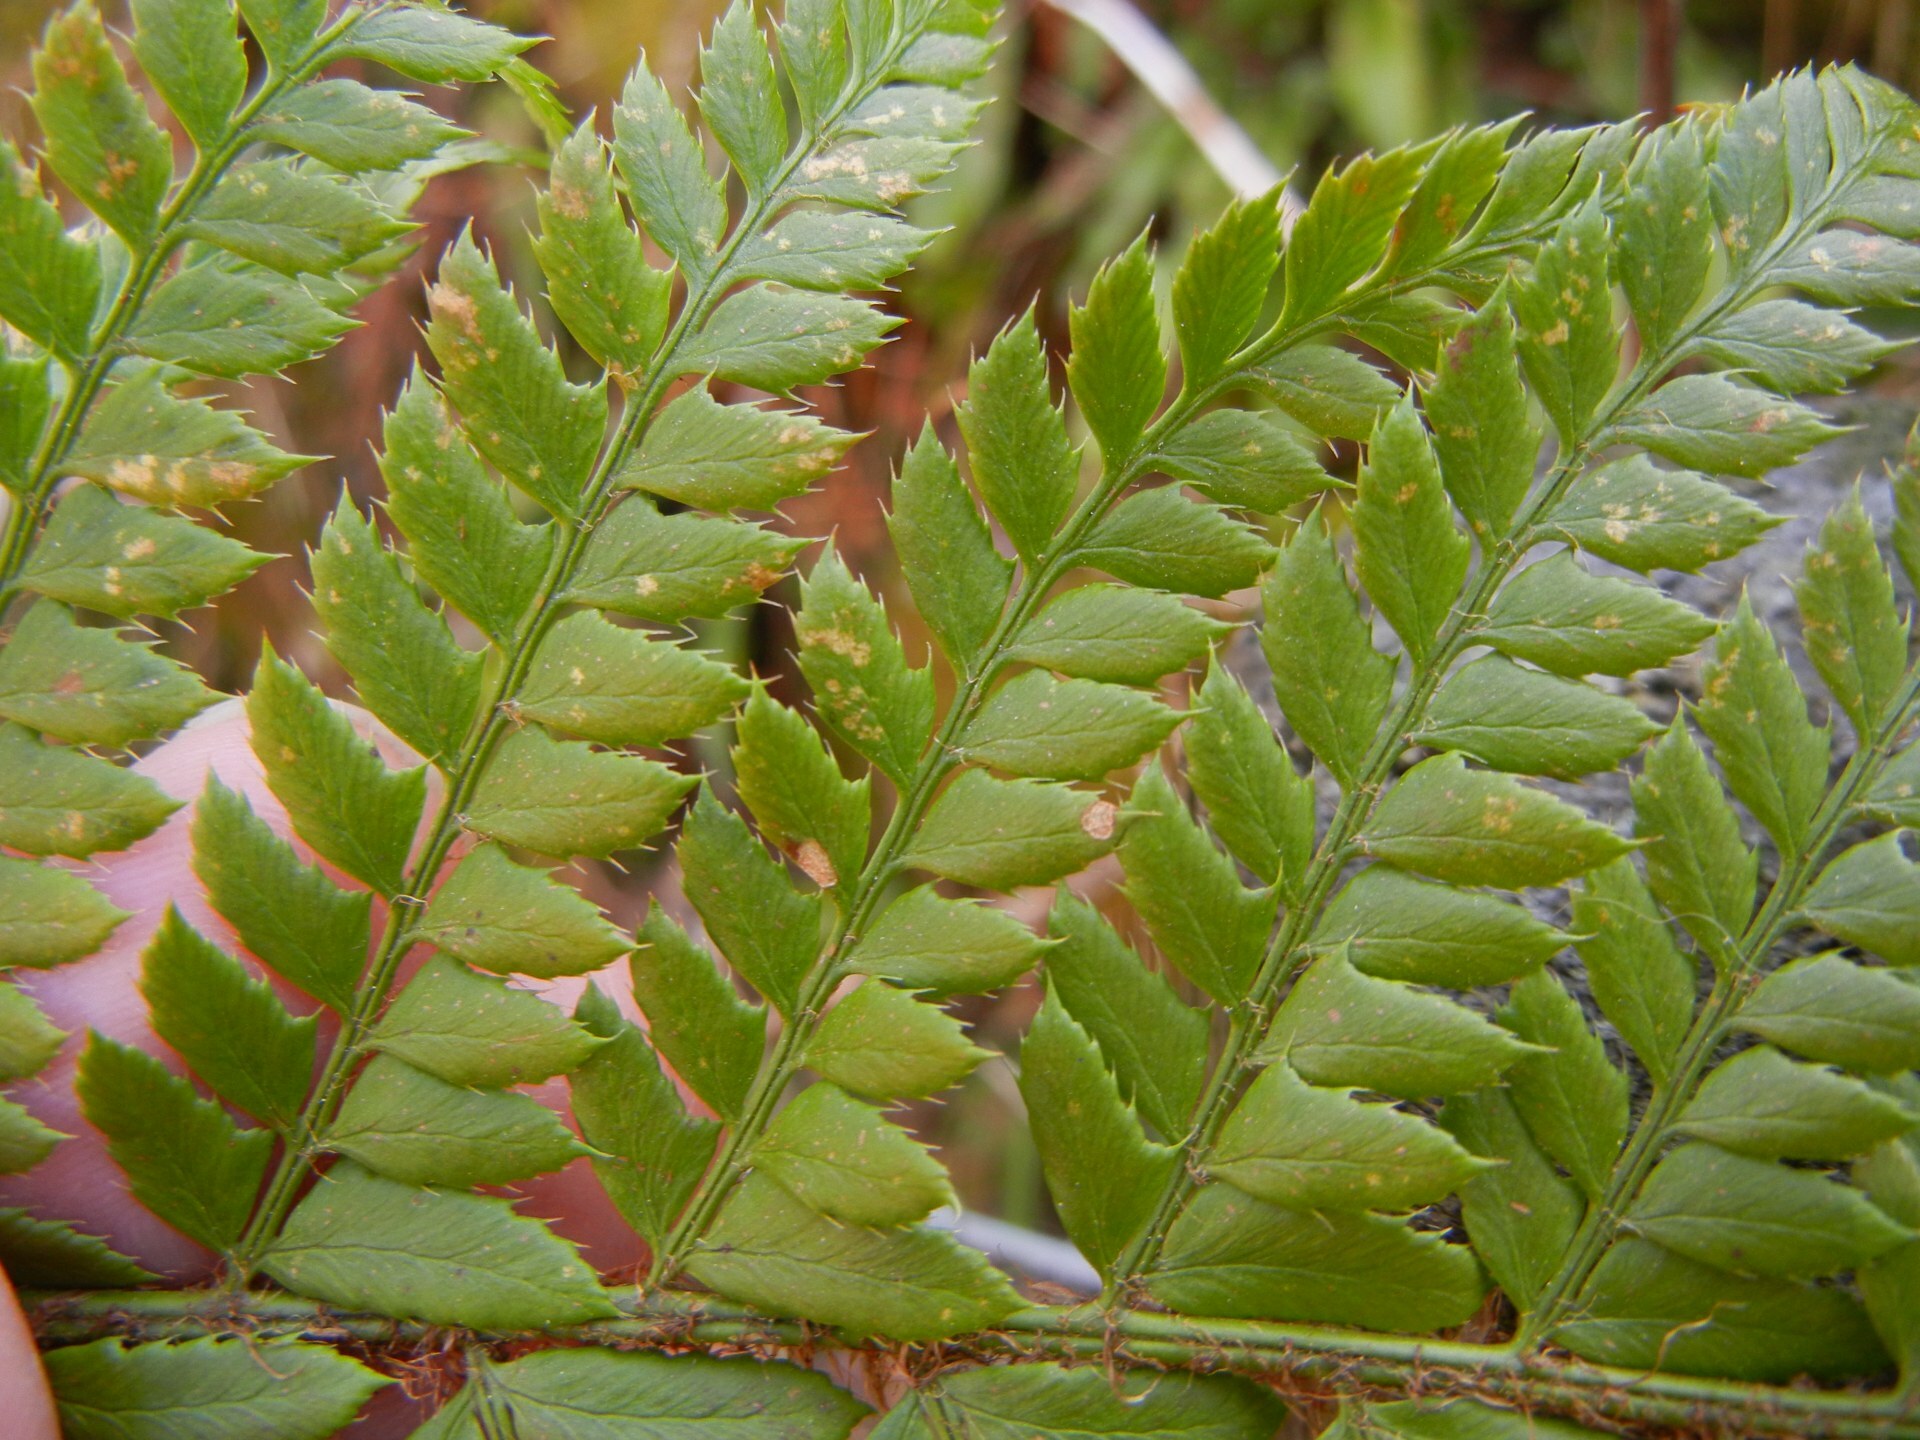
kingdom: Plantae
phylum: Tracheophyta
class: Polypodiopsida
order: Polypodiales
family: Dryopteridaceae
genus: Polystichum
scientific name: Polystichum aculeatum
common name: Hard shield-fern
